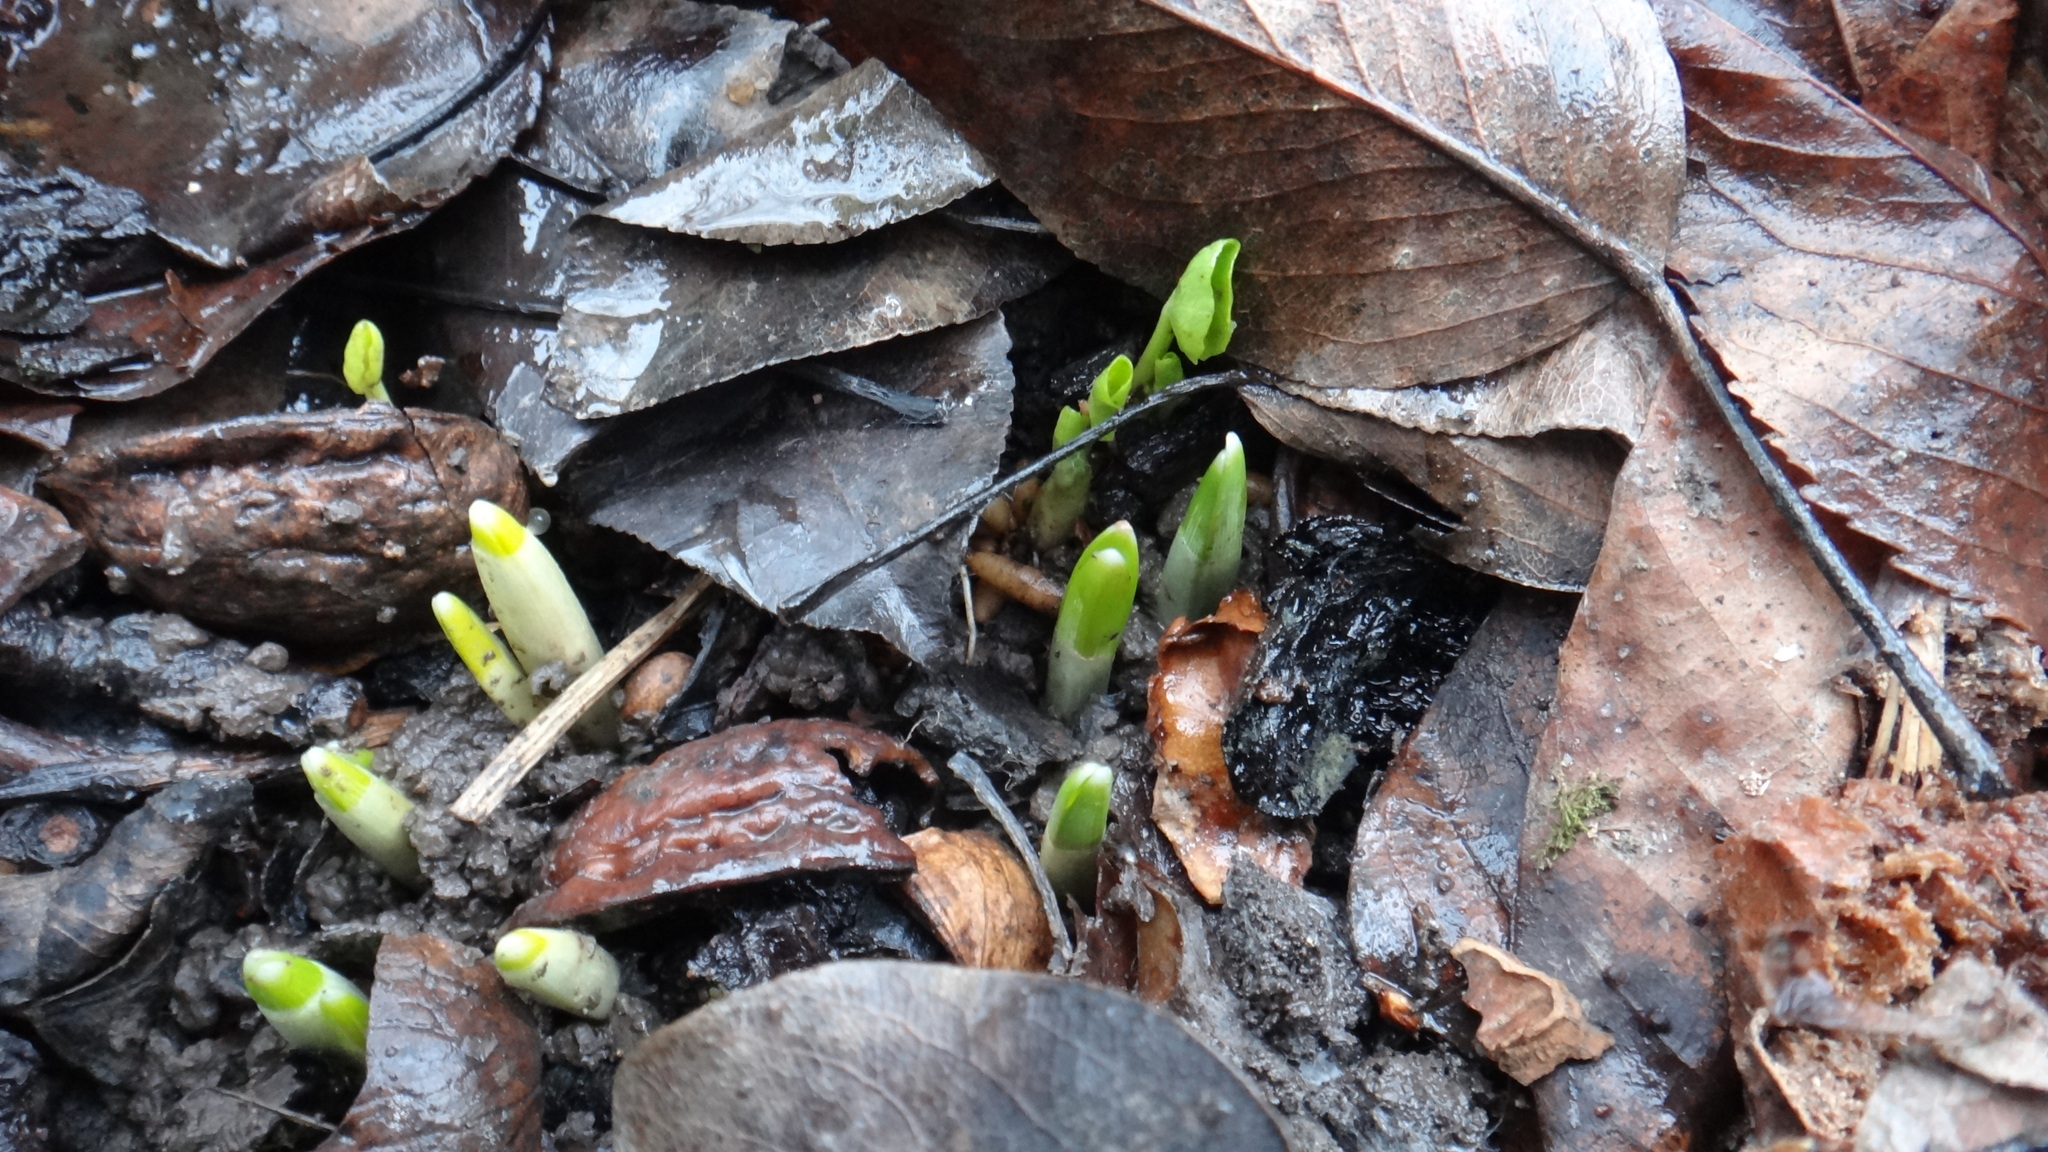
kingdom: Plantae
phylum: Tracheophyta
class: Liliopsida
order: Asparagales
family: Amaryllidaceae
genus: Galanthus
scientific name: Galanthus nivalis
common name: Snowdrop
